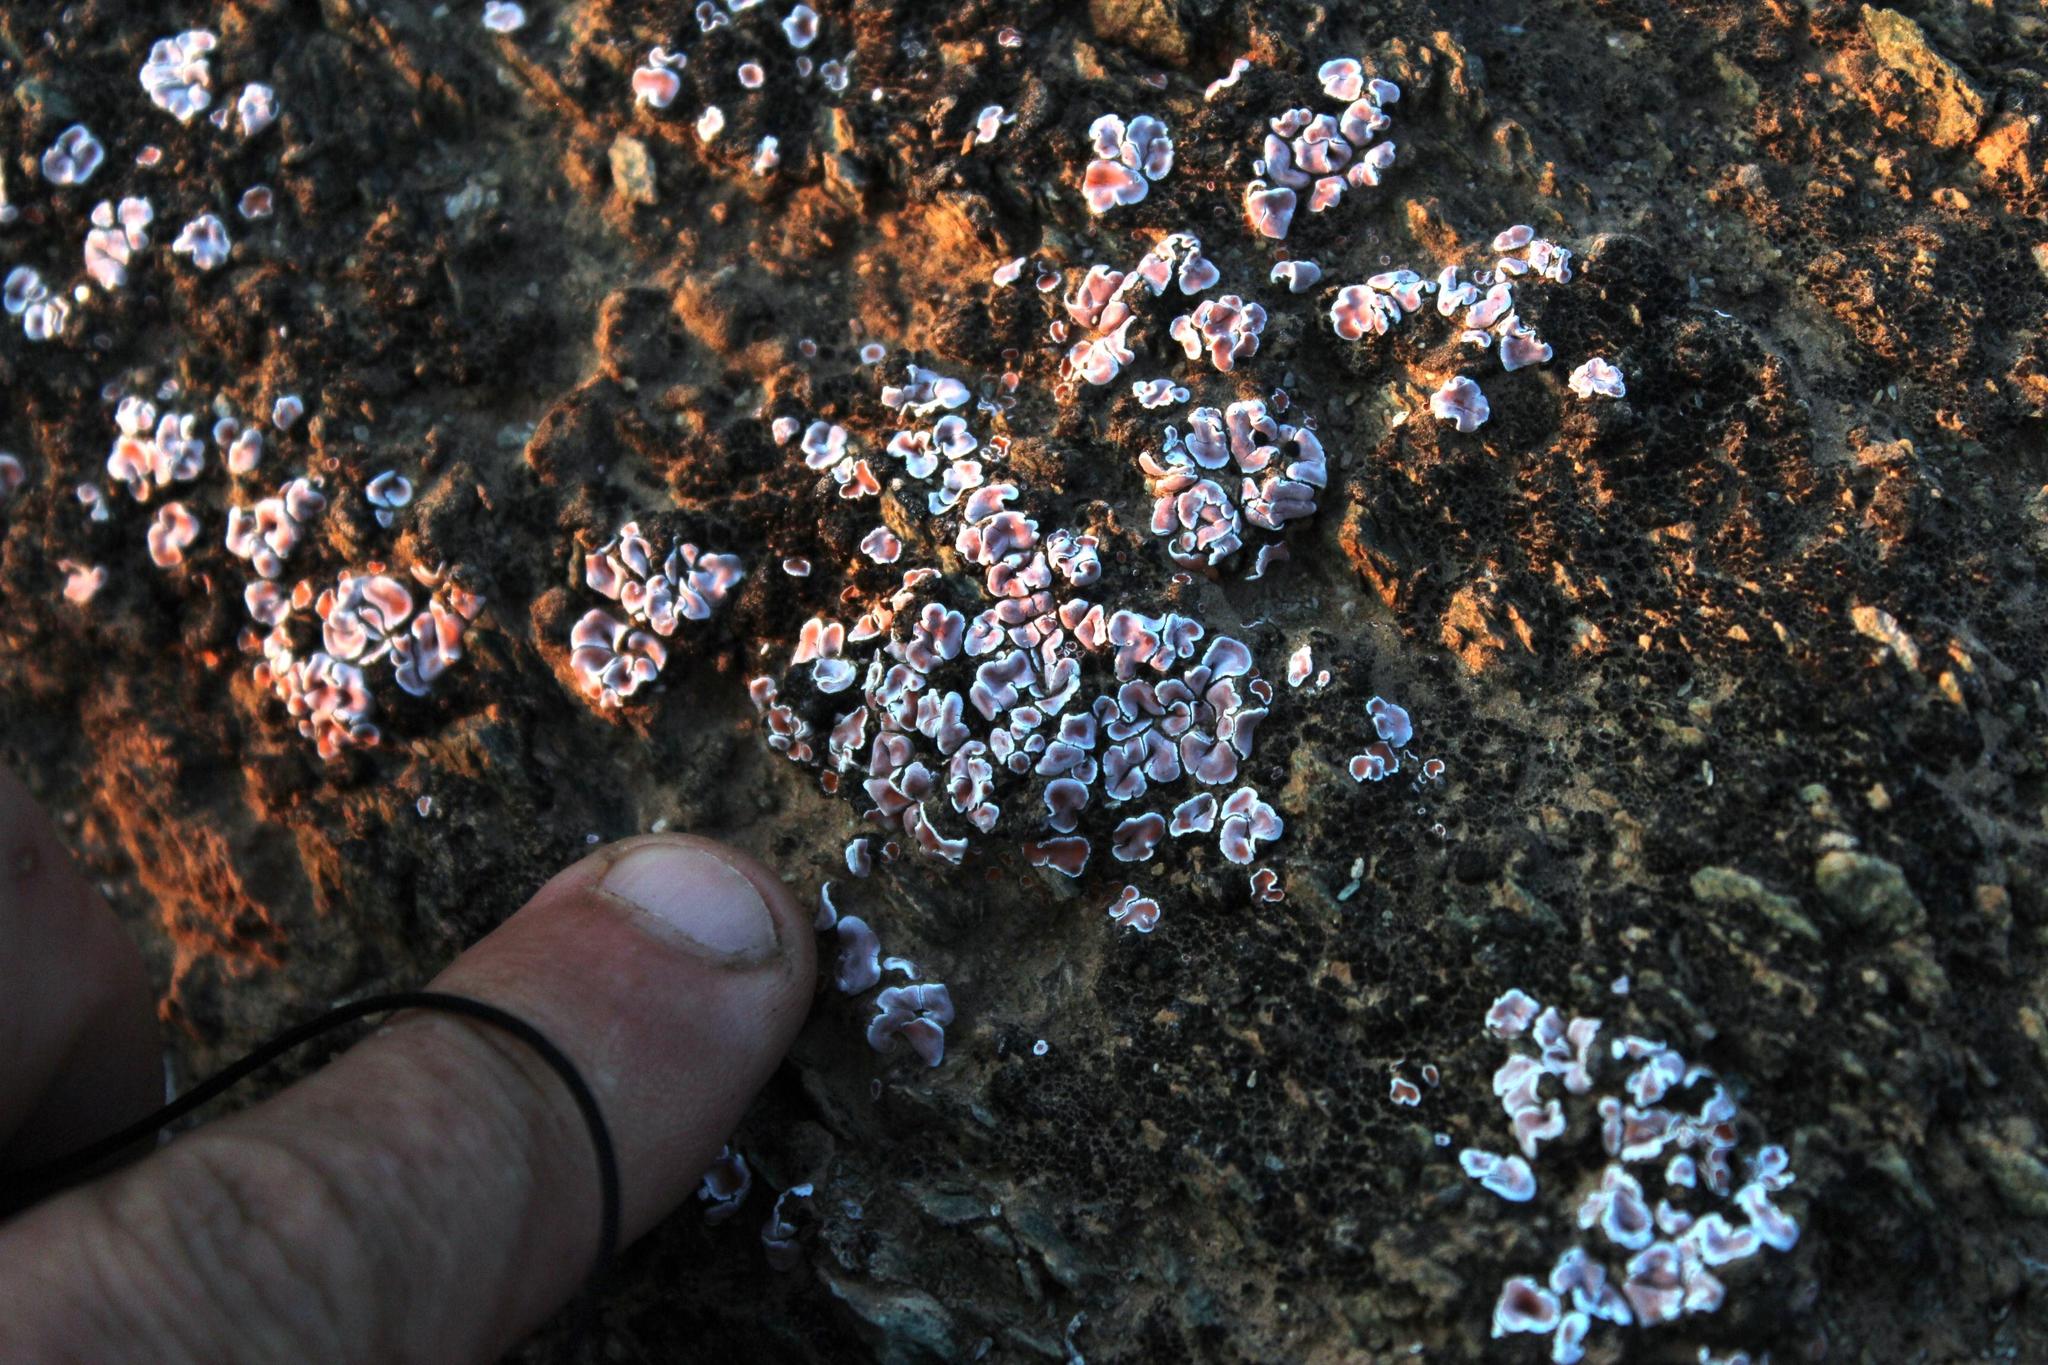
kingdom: Fungi
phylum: Ascomycota
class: Lecanoromycetes
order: Lecanorales
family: Psoraceae
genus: Psora
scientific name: Psora crenata
